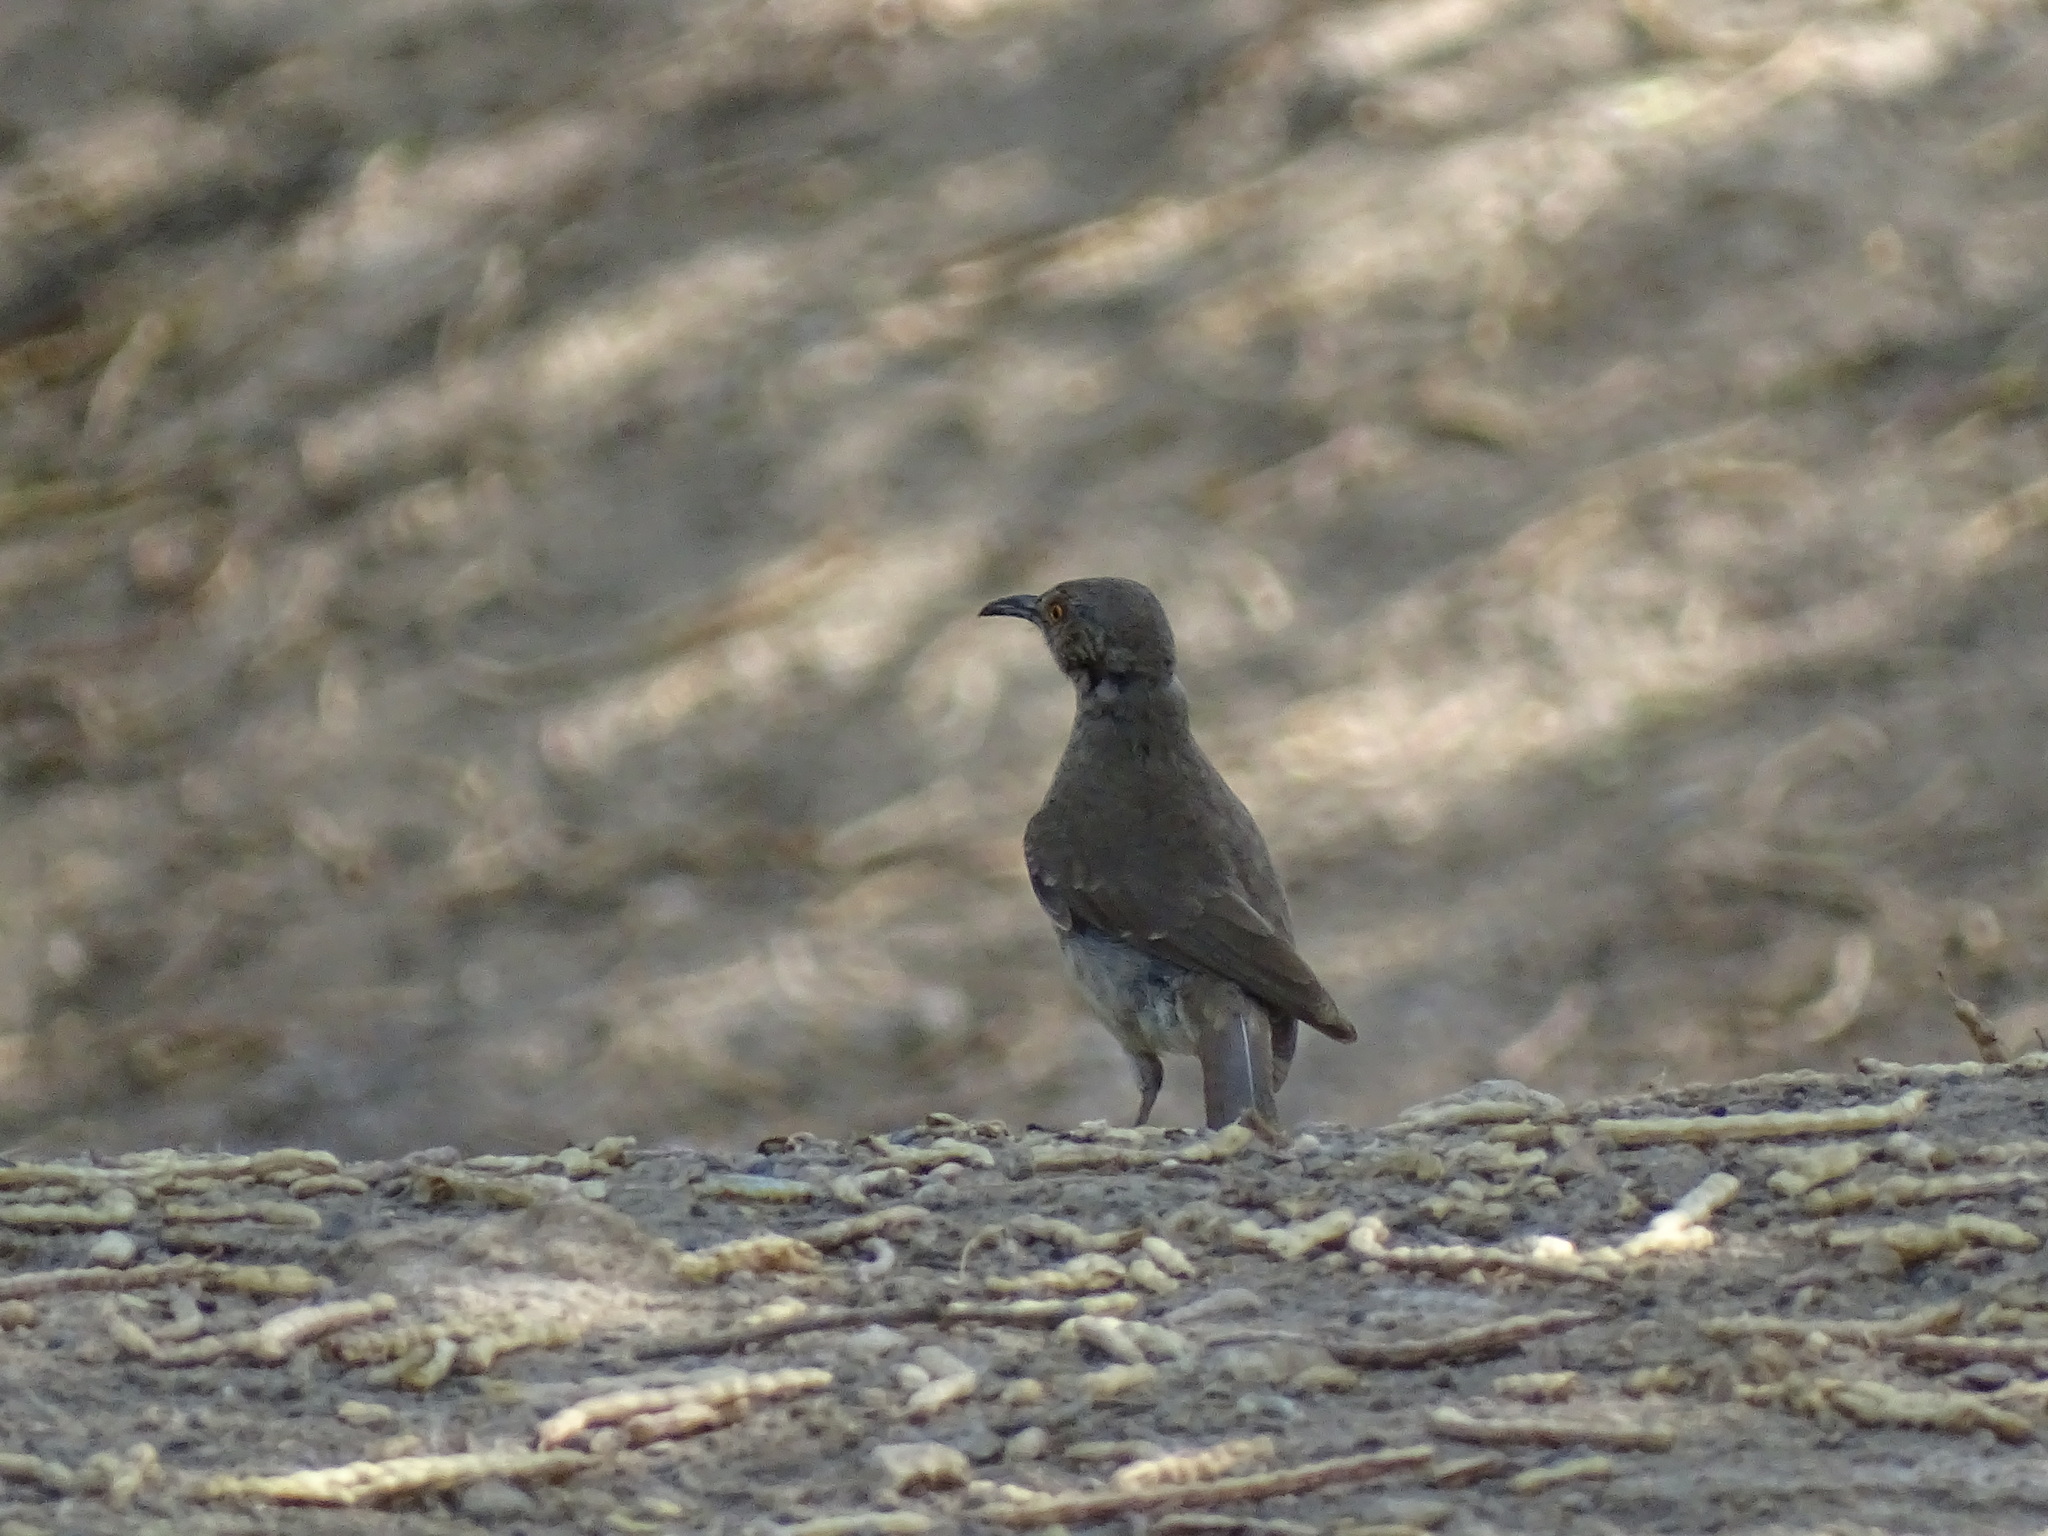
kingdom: Animalia
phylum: Chordata
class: Aves
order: Passeriformes
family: Mimidae
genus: Toxostoma
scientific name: Toxostoma curvirostre
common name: Curve-billed thrasher
